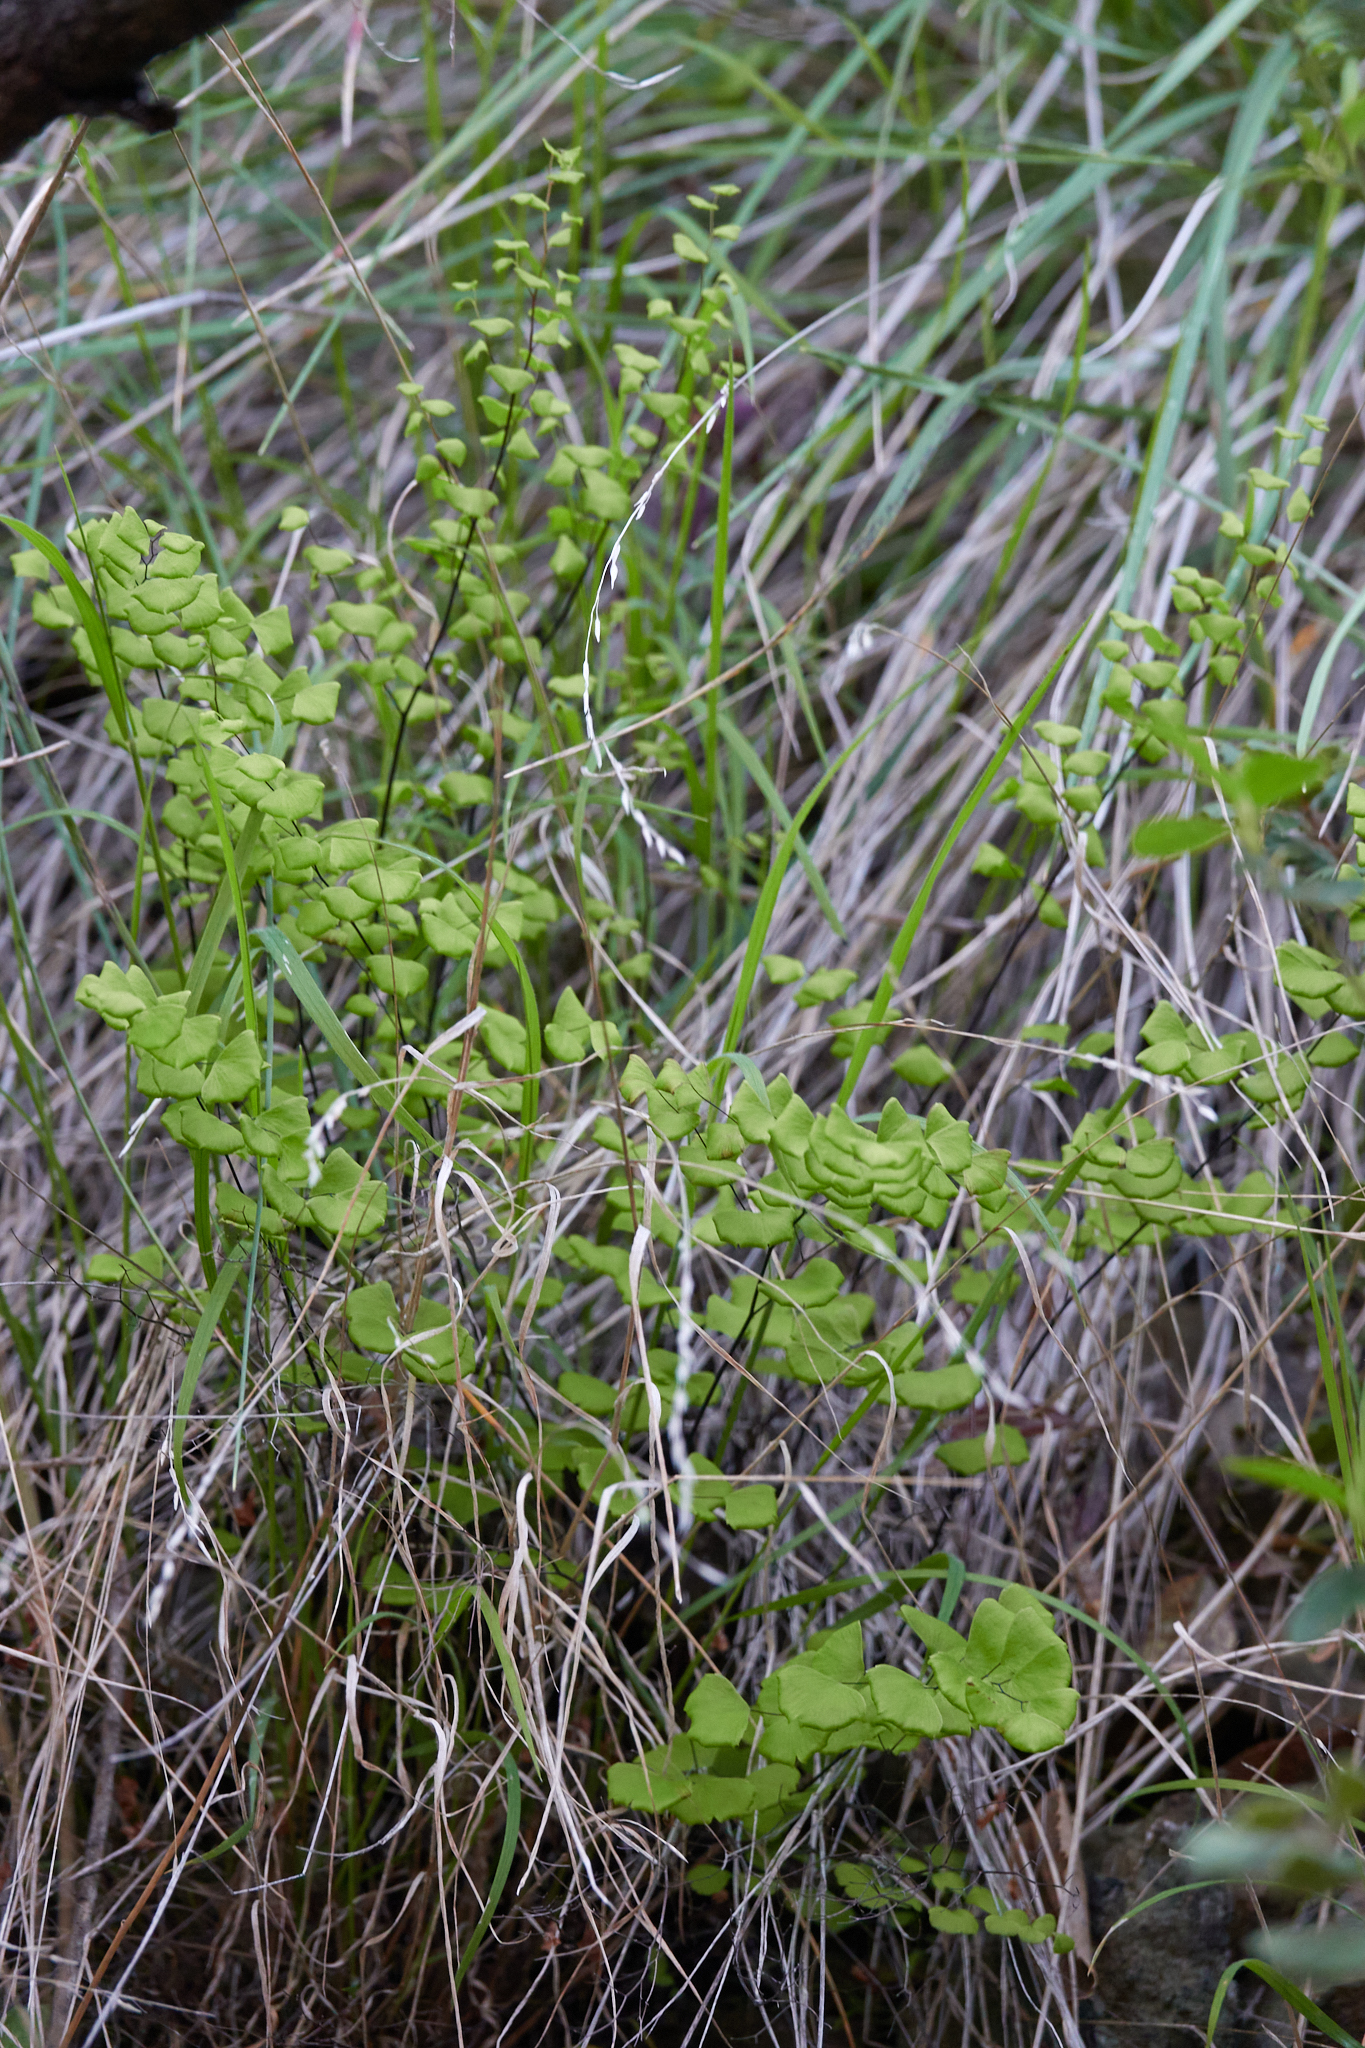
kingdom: Plantae
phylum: Tracheophyta
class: Polypodiopsida
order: Polypodiales
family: Pteridaceae
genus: Adiantum
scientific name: Adiantum jordanii
